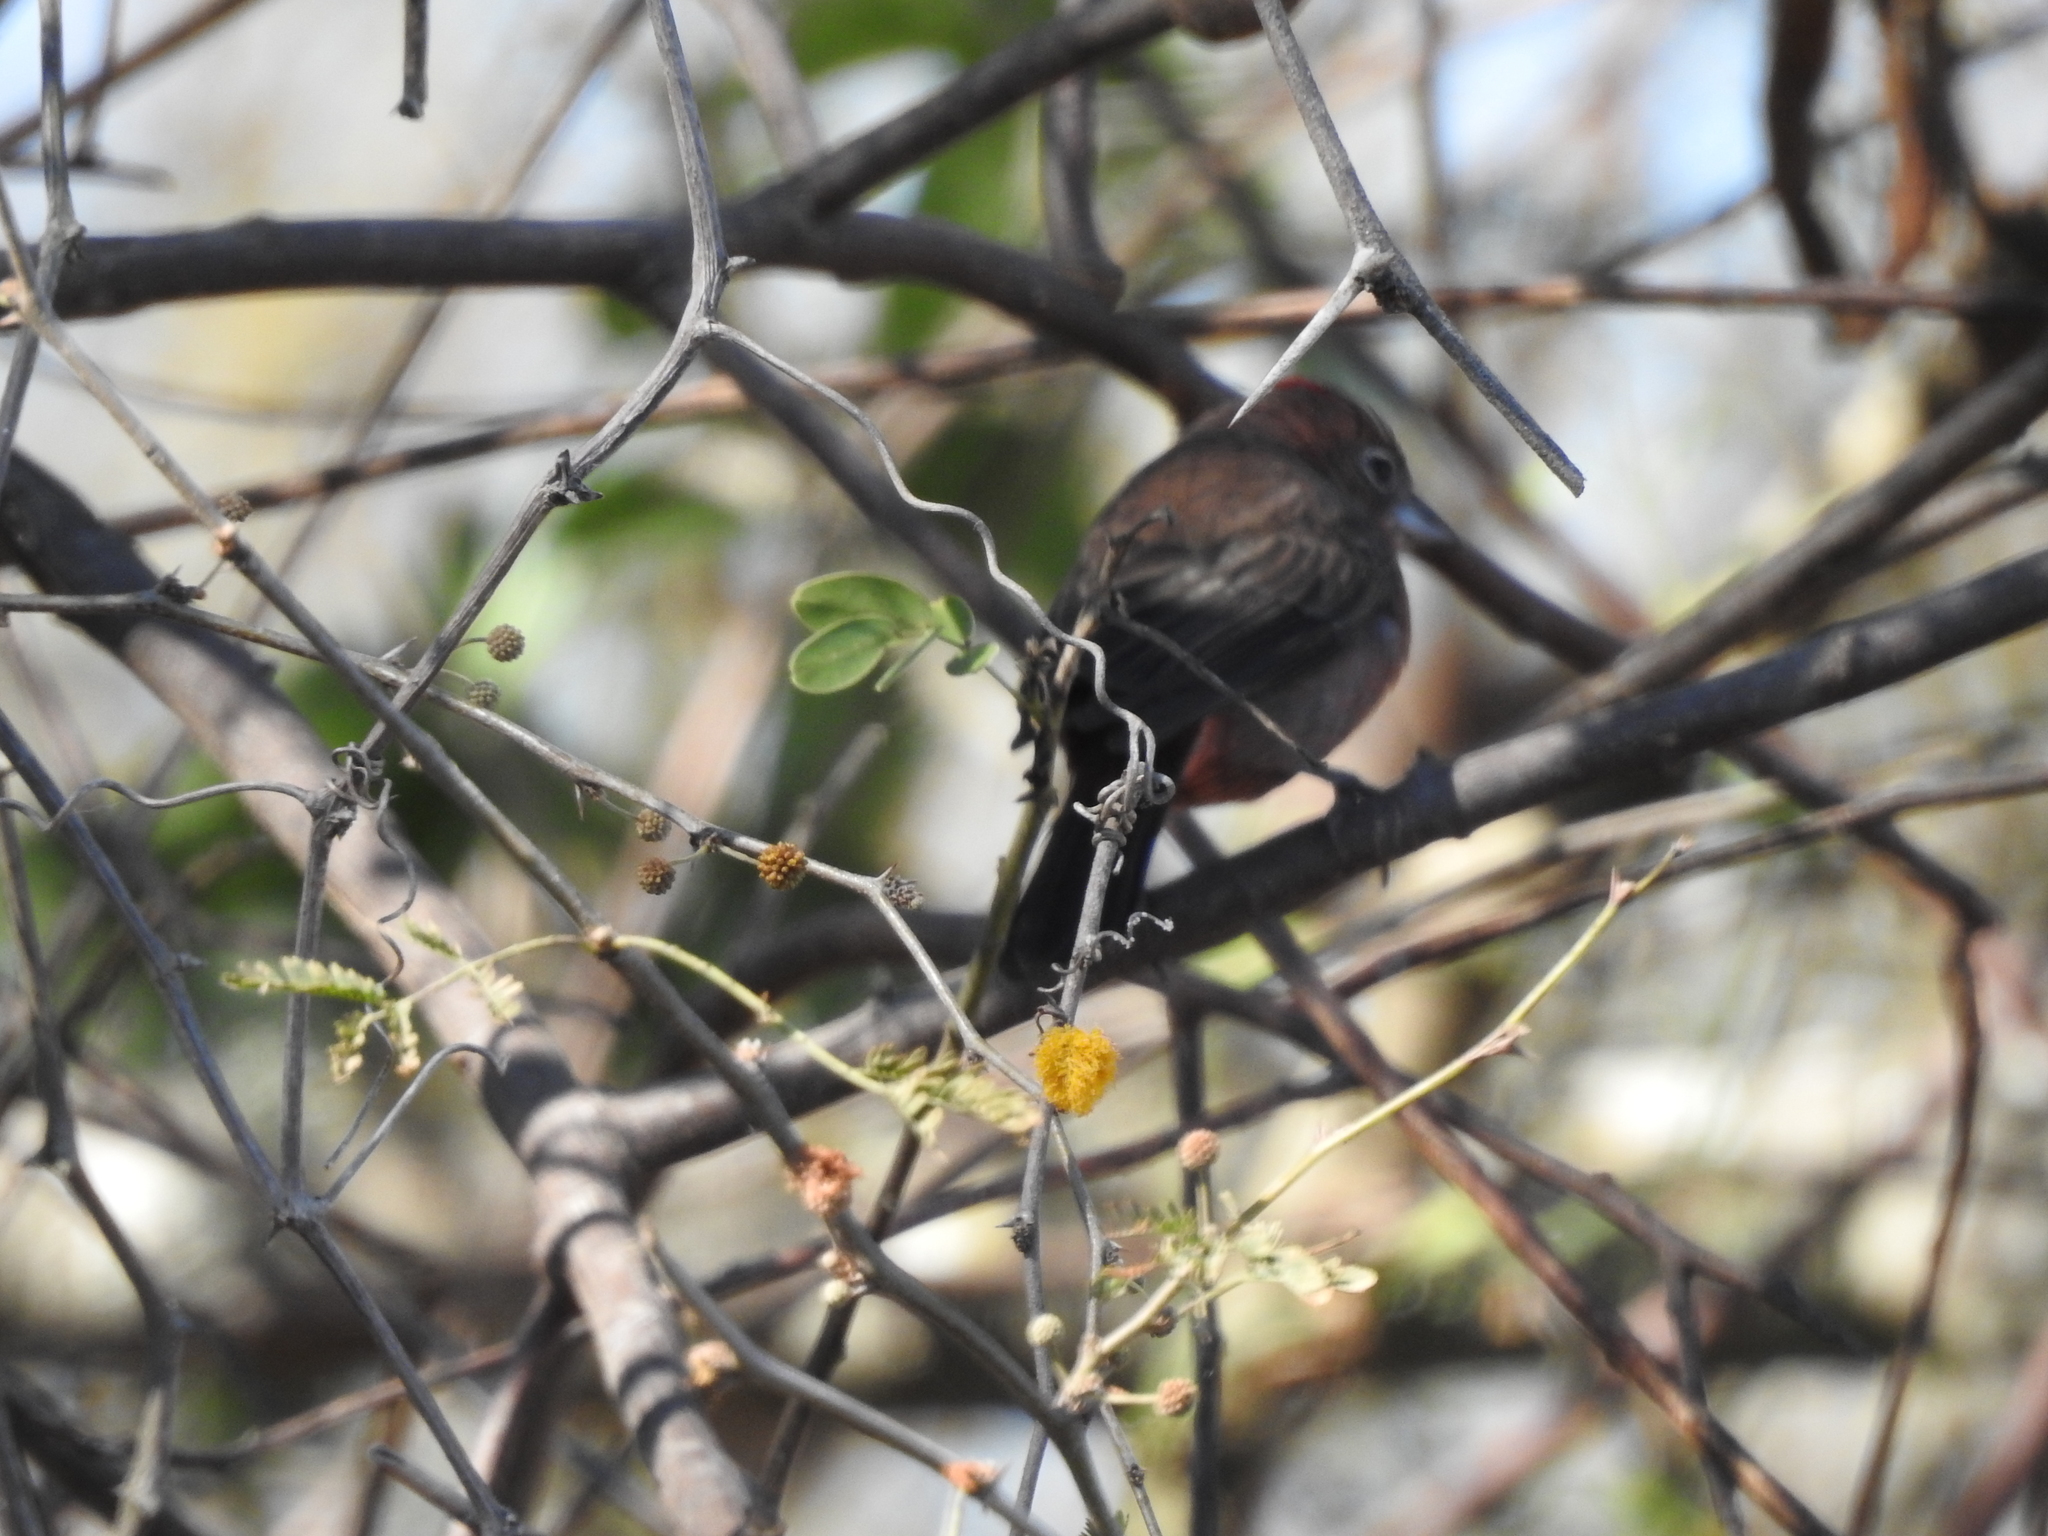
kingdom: Animalia
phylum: Chordata
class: Aves
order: Passeriformes
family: Thraupidae
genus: Coryphospingus
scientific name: Coryphospingus cucullatus
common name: Red pileated finch
